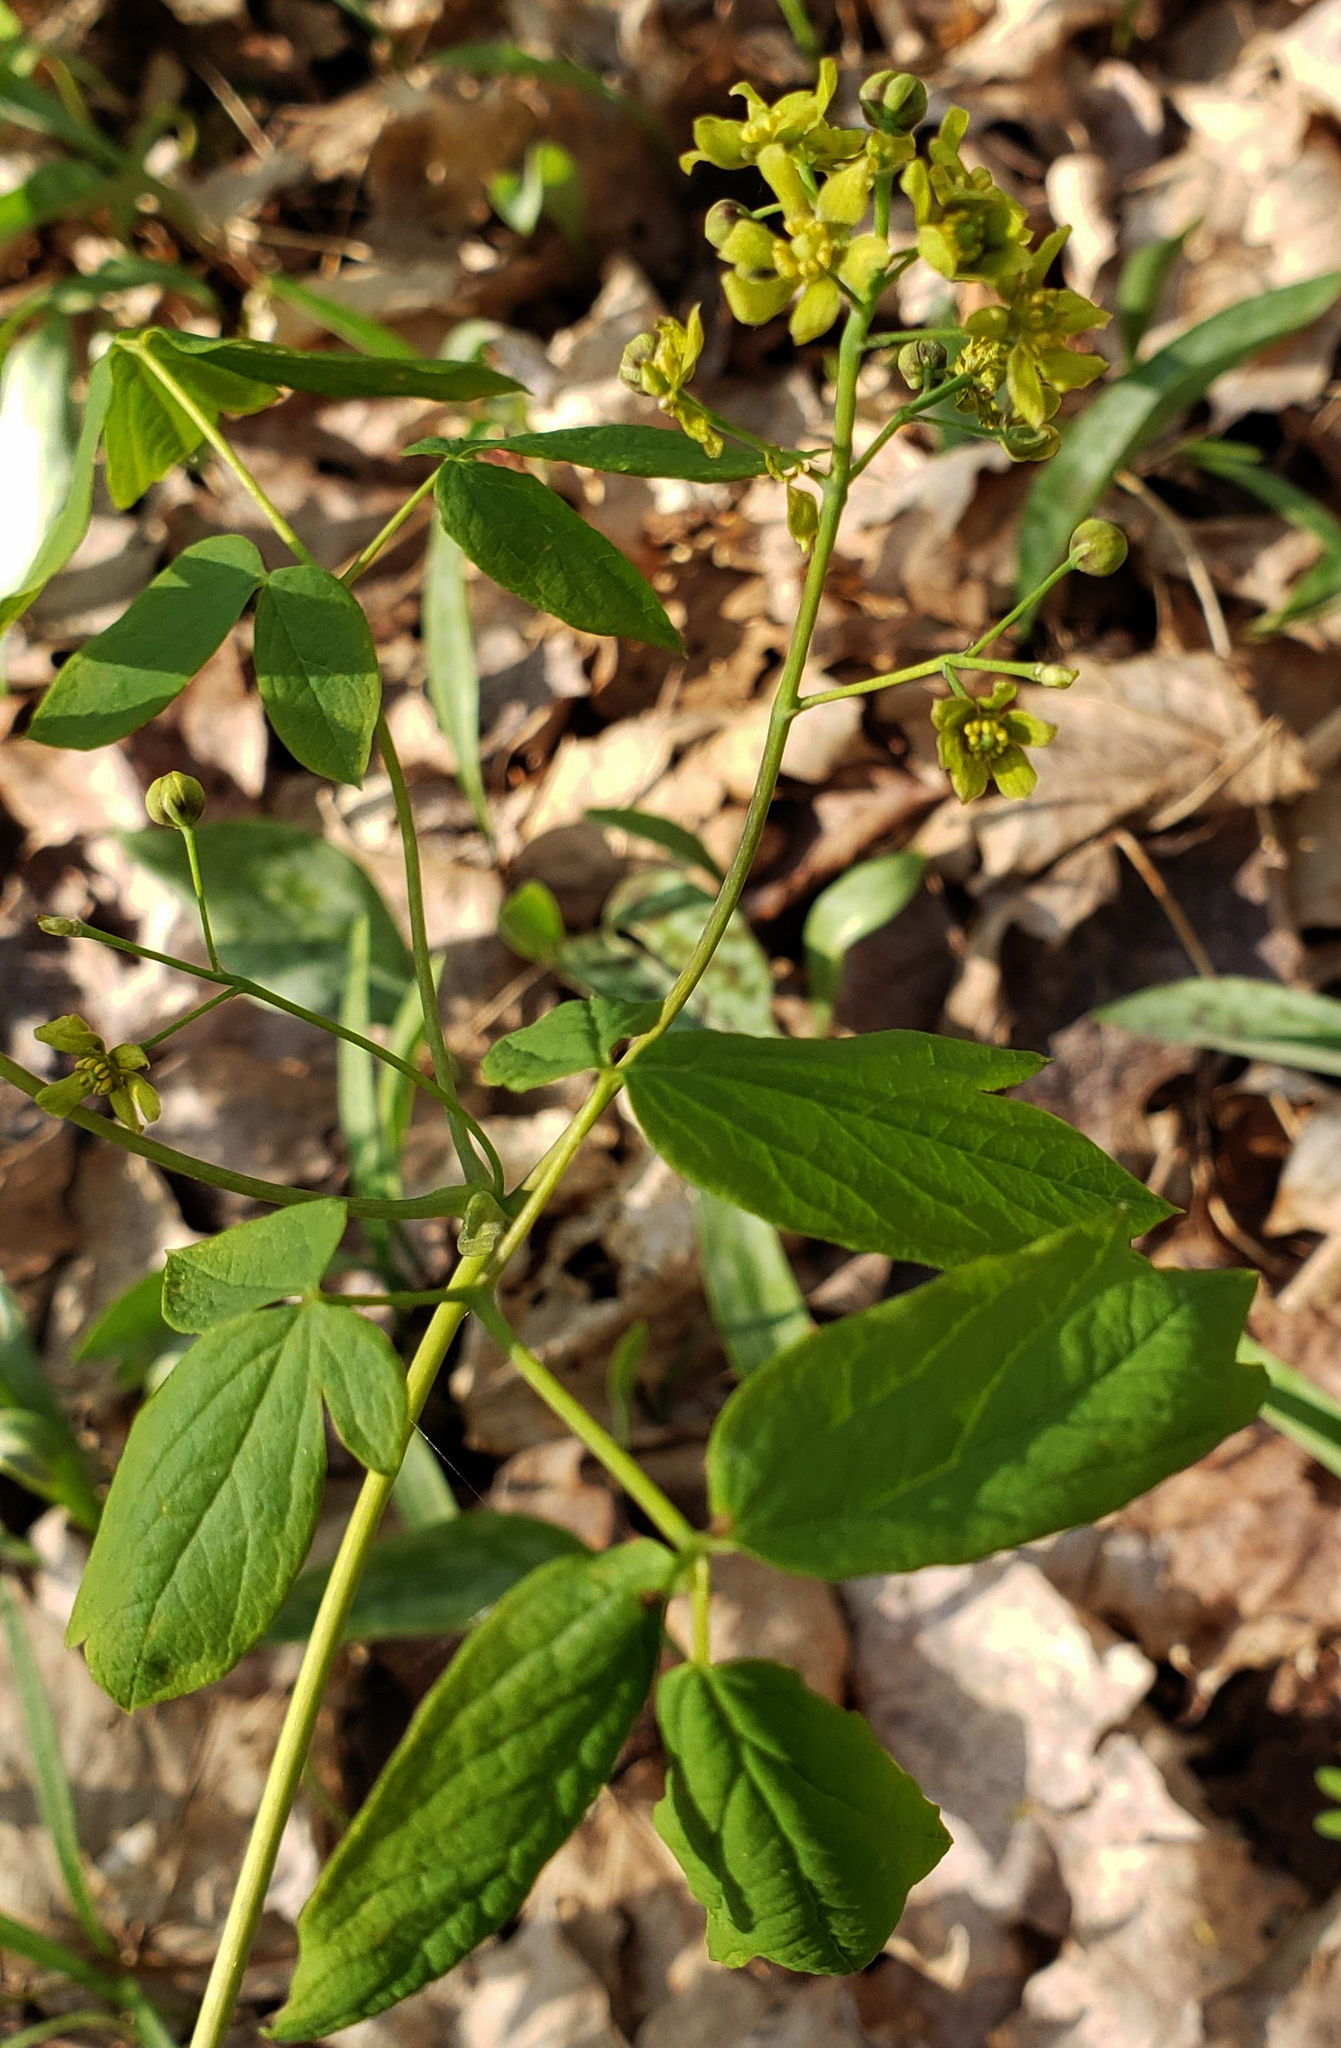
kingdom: Plantae
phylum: Tracheophyta
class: Magnoliopsida
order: Ranunculales
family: Berberidaceae
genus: Caulophyllum
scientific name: Caulophyllum thalictroides
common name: Blue cohosh
